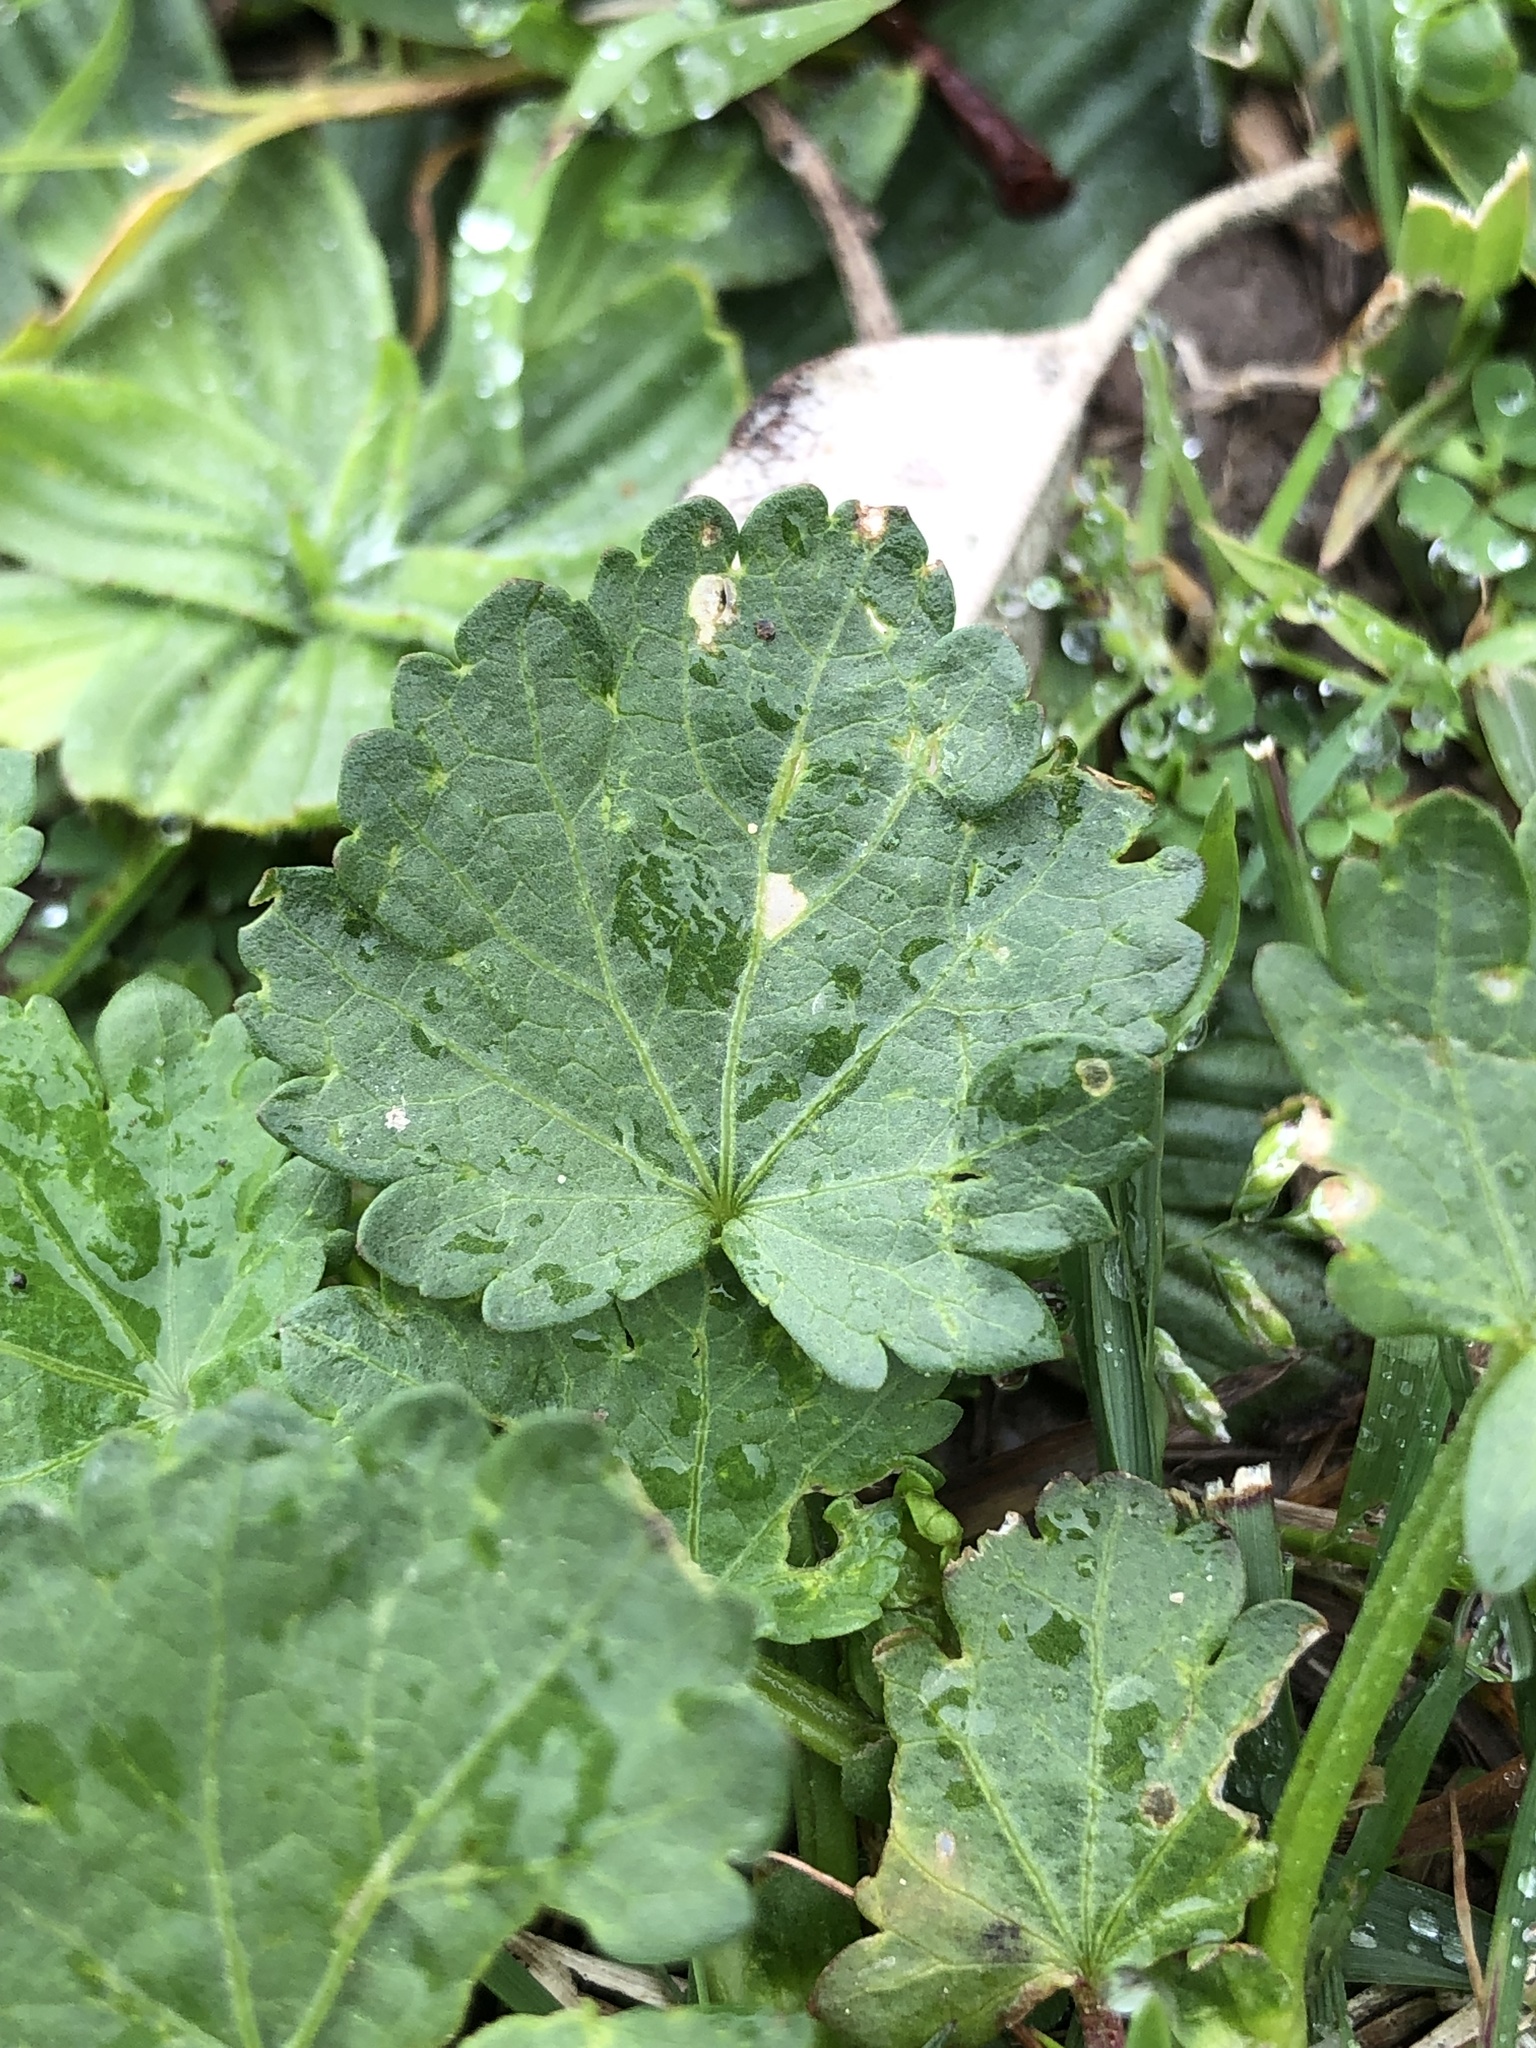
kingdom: Plantae
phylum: Tracheophyta
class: Magnoliopsida
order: Malvales
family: Malvaceae
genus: Modiola
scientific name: Modiola caroliniana
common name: Carolina bristlemallow
